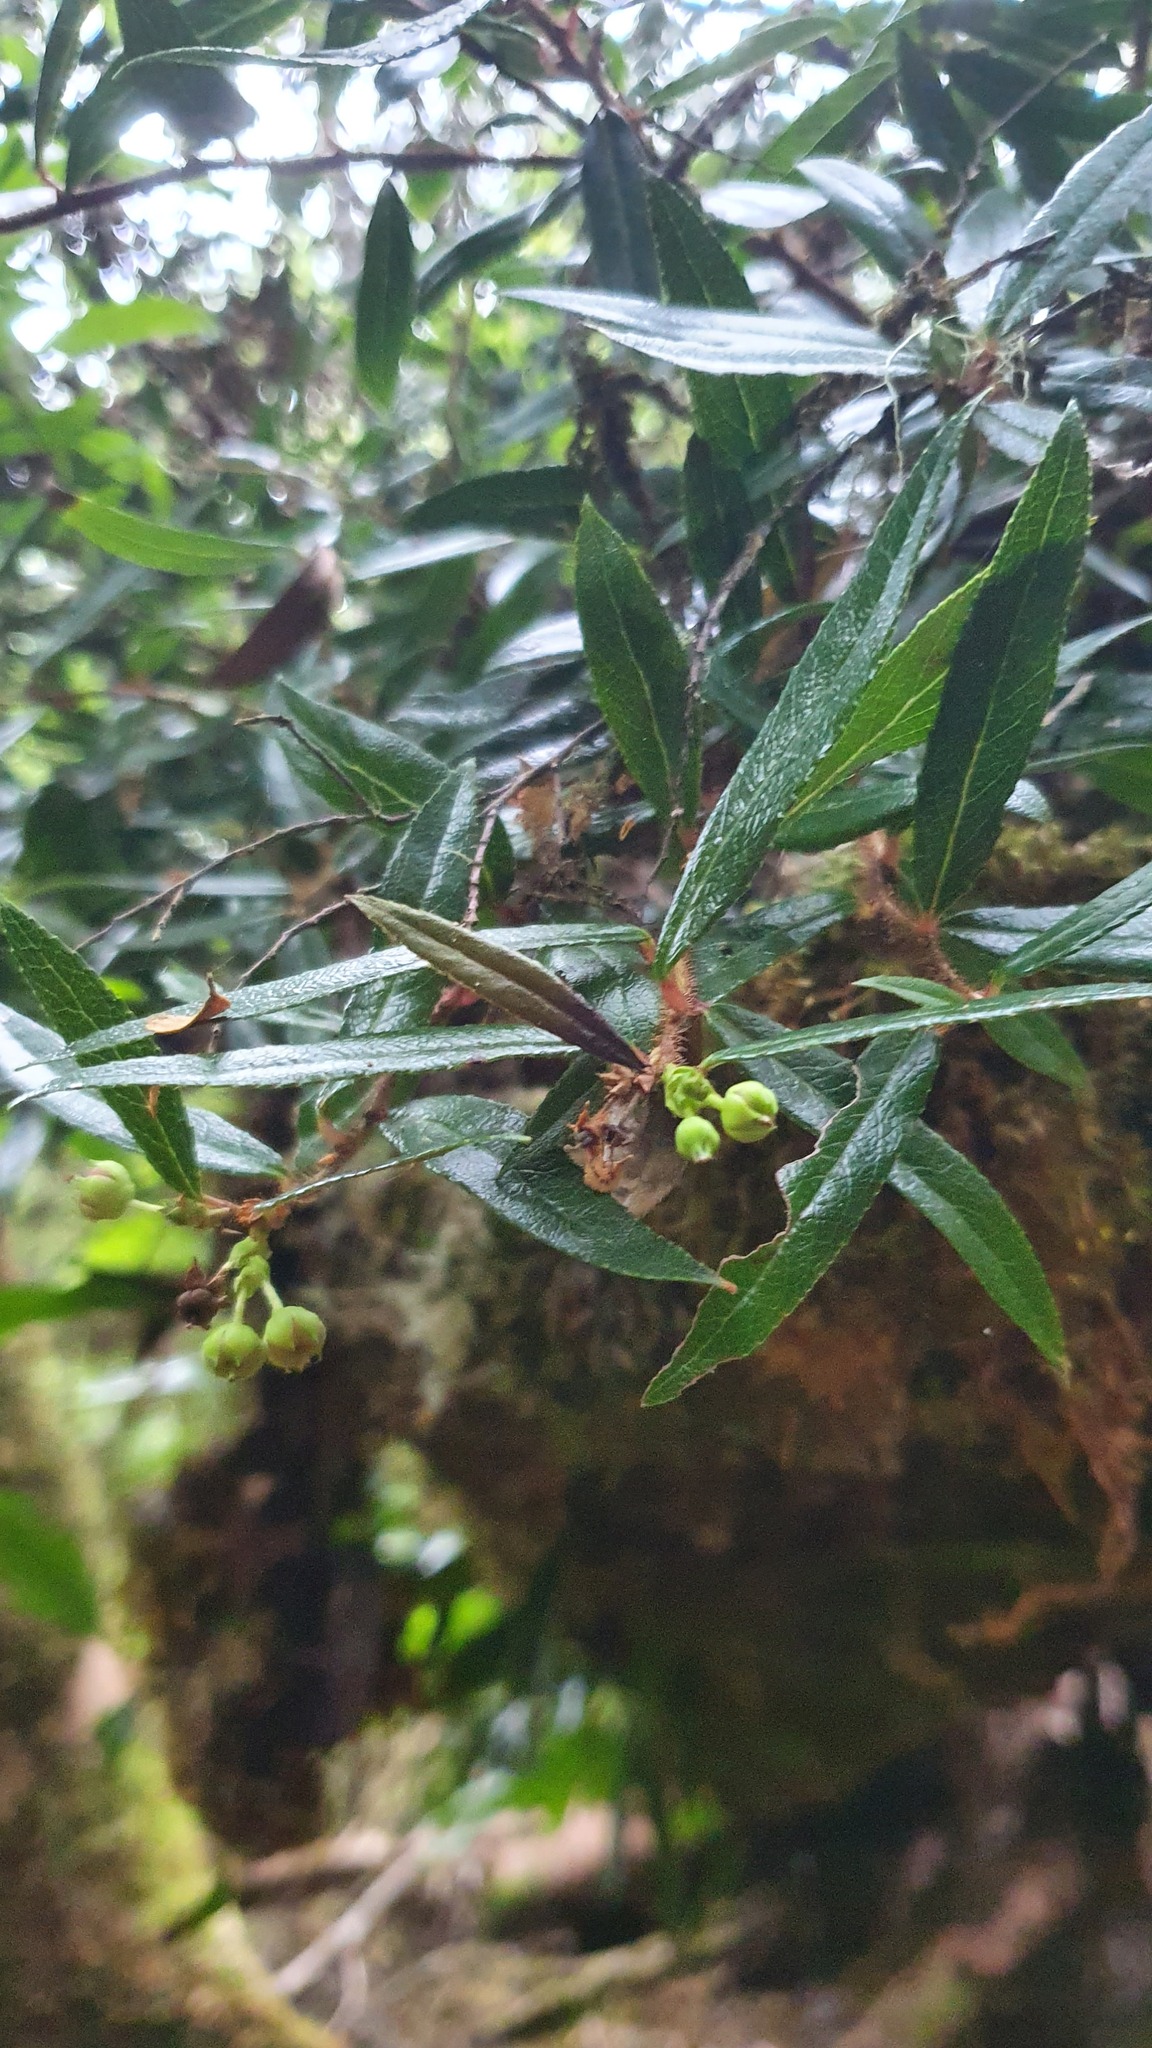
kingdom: Plantae
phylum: Tracheophyta
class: Magnoliopsida
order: Ericales
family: Ericaceae
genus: Gaultheria
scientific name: Gaultheria hispida
